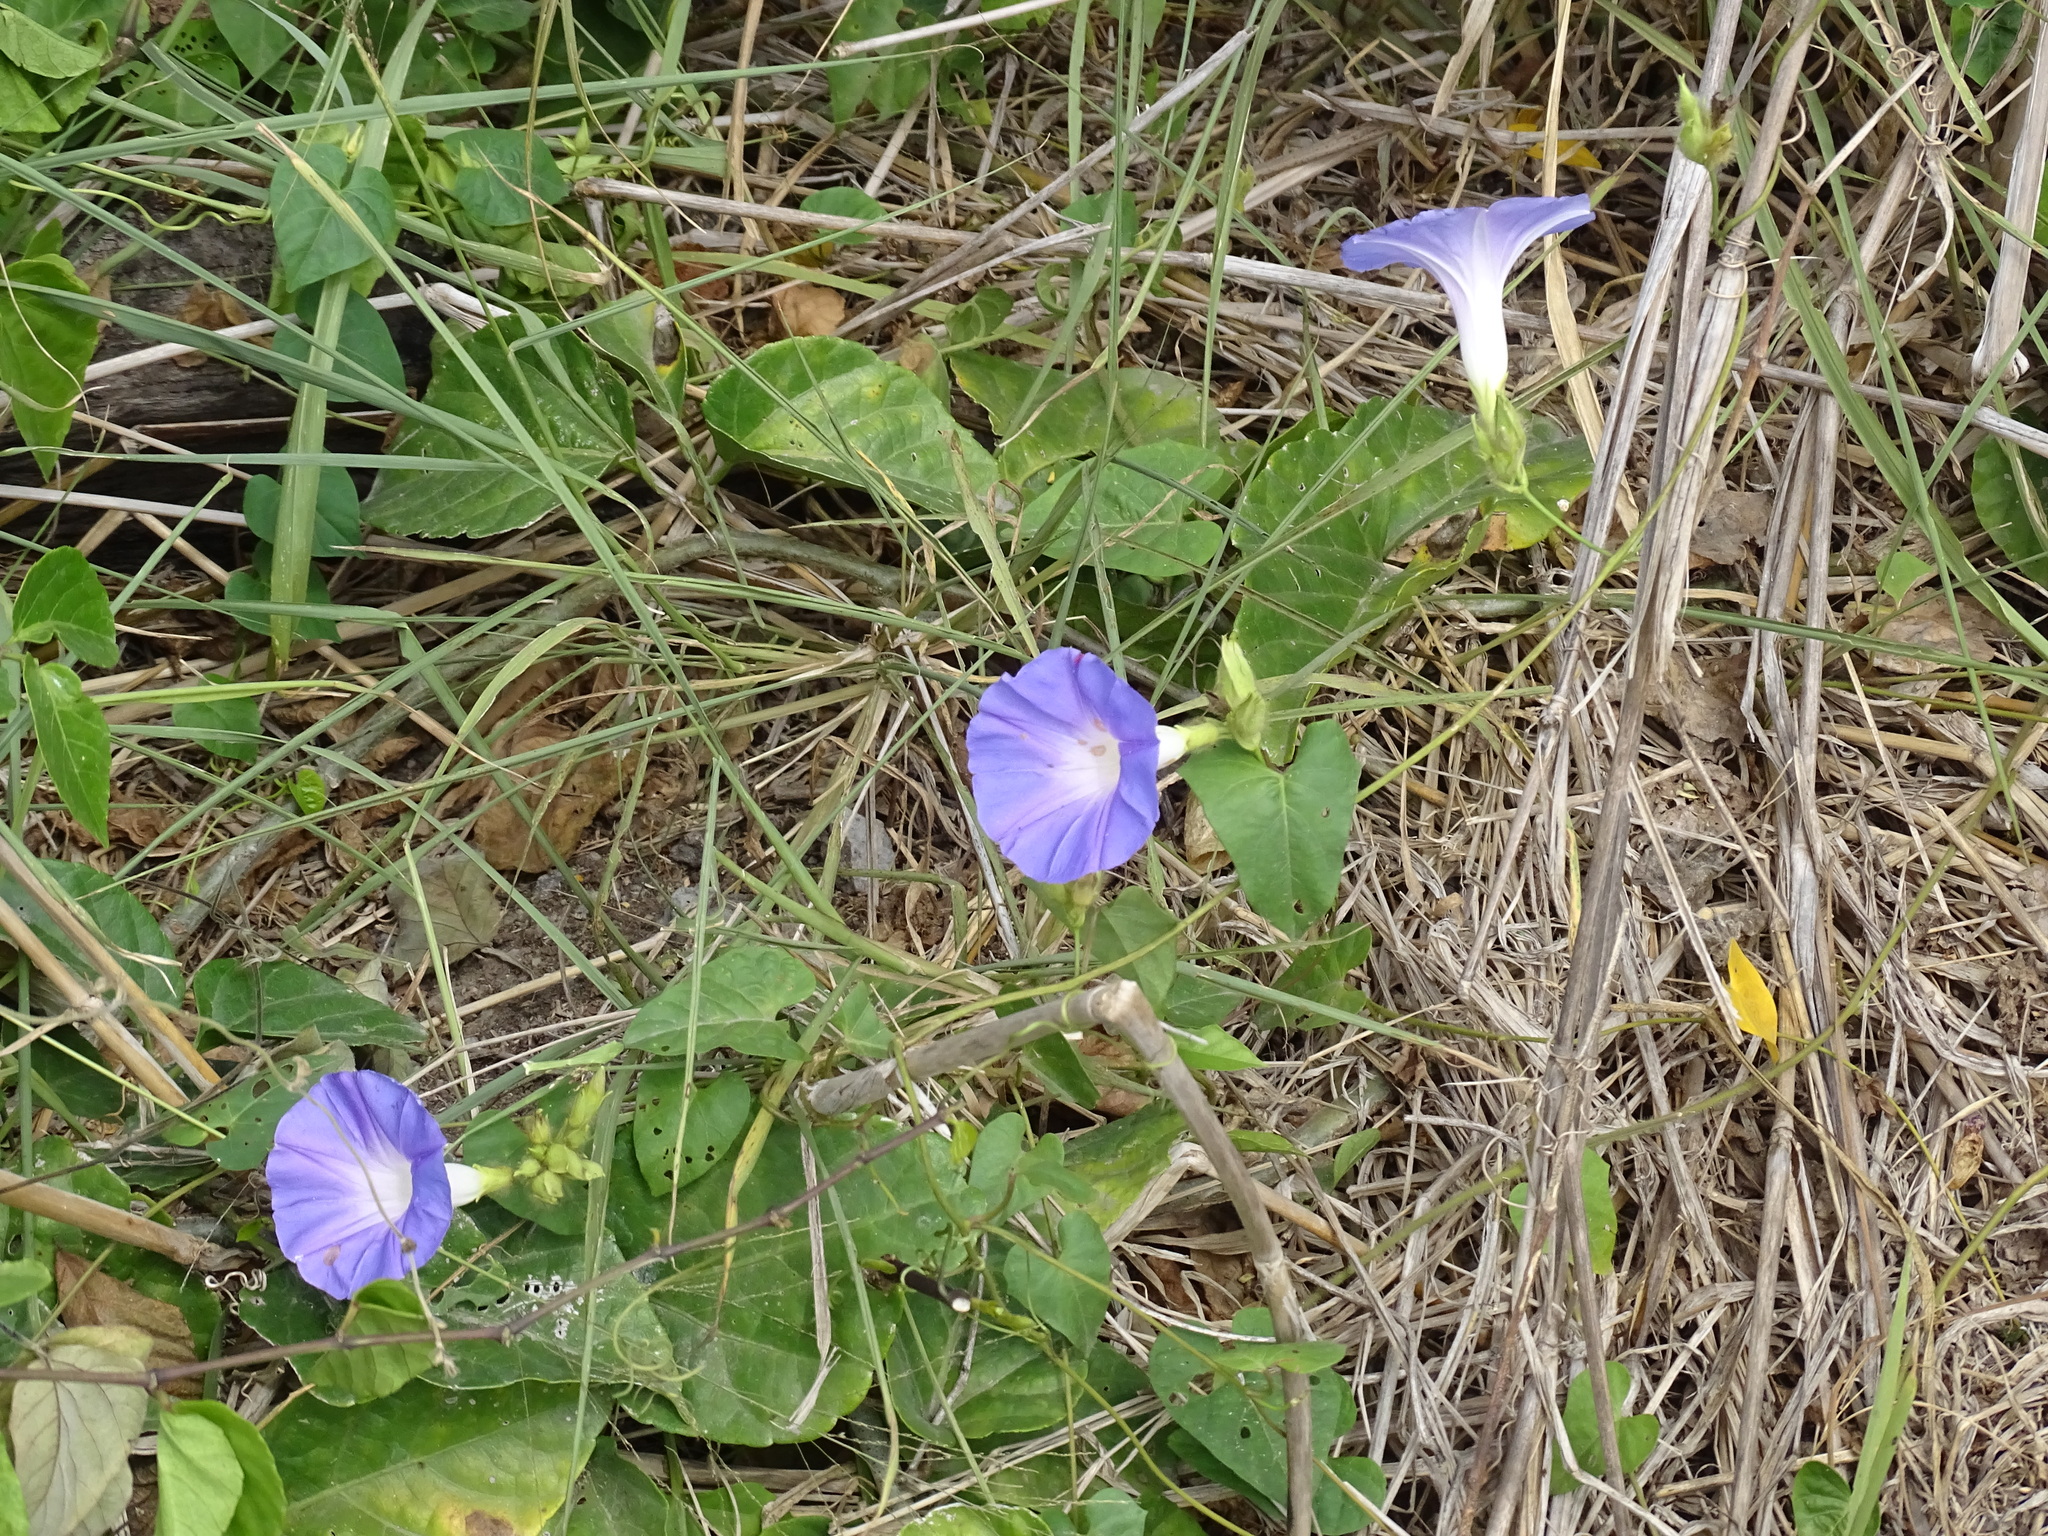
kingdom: Plantae
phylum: Tracheophyta
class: Magnoliopsida
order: Solanales
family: Convolvulaceae
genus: Ipomoea
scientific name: Ipomoea mitchelliae
